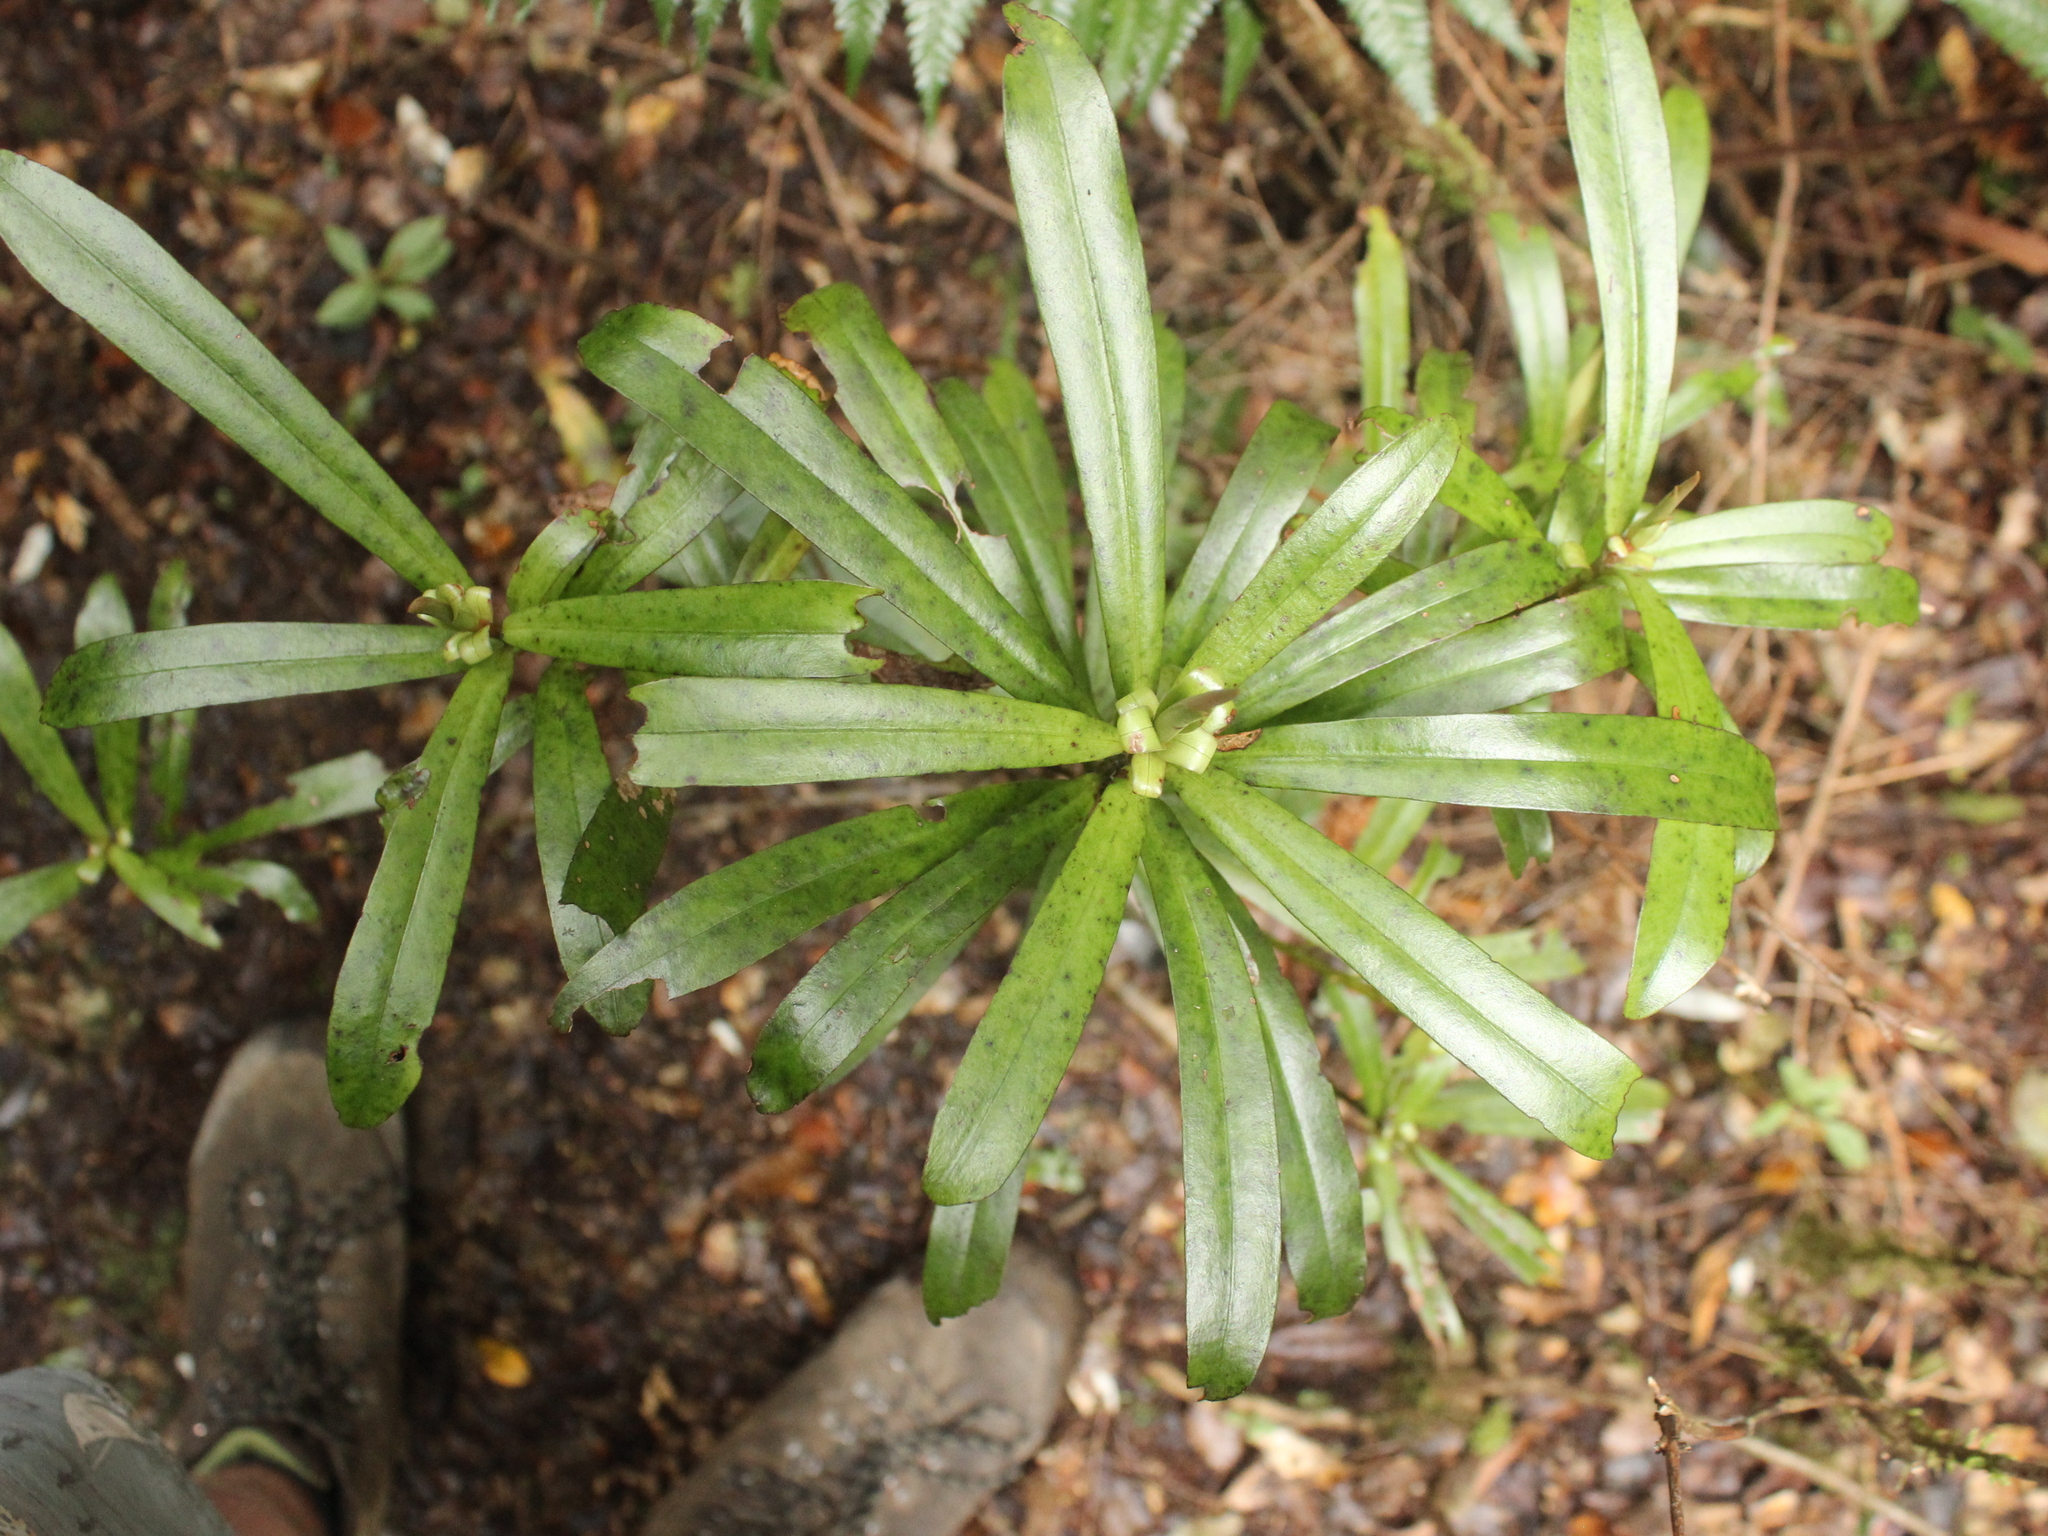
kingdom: Plantae
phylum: Tracheophyta
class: Magnoliopsida
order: Ericales
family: Primulaceae
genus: Myrsine
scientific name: Myrsine salicina
